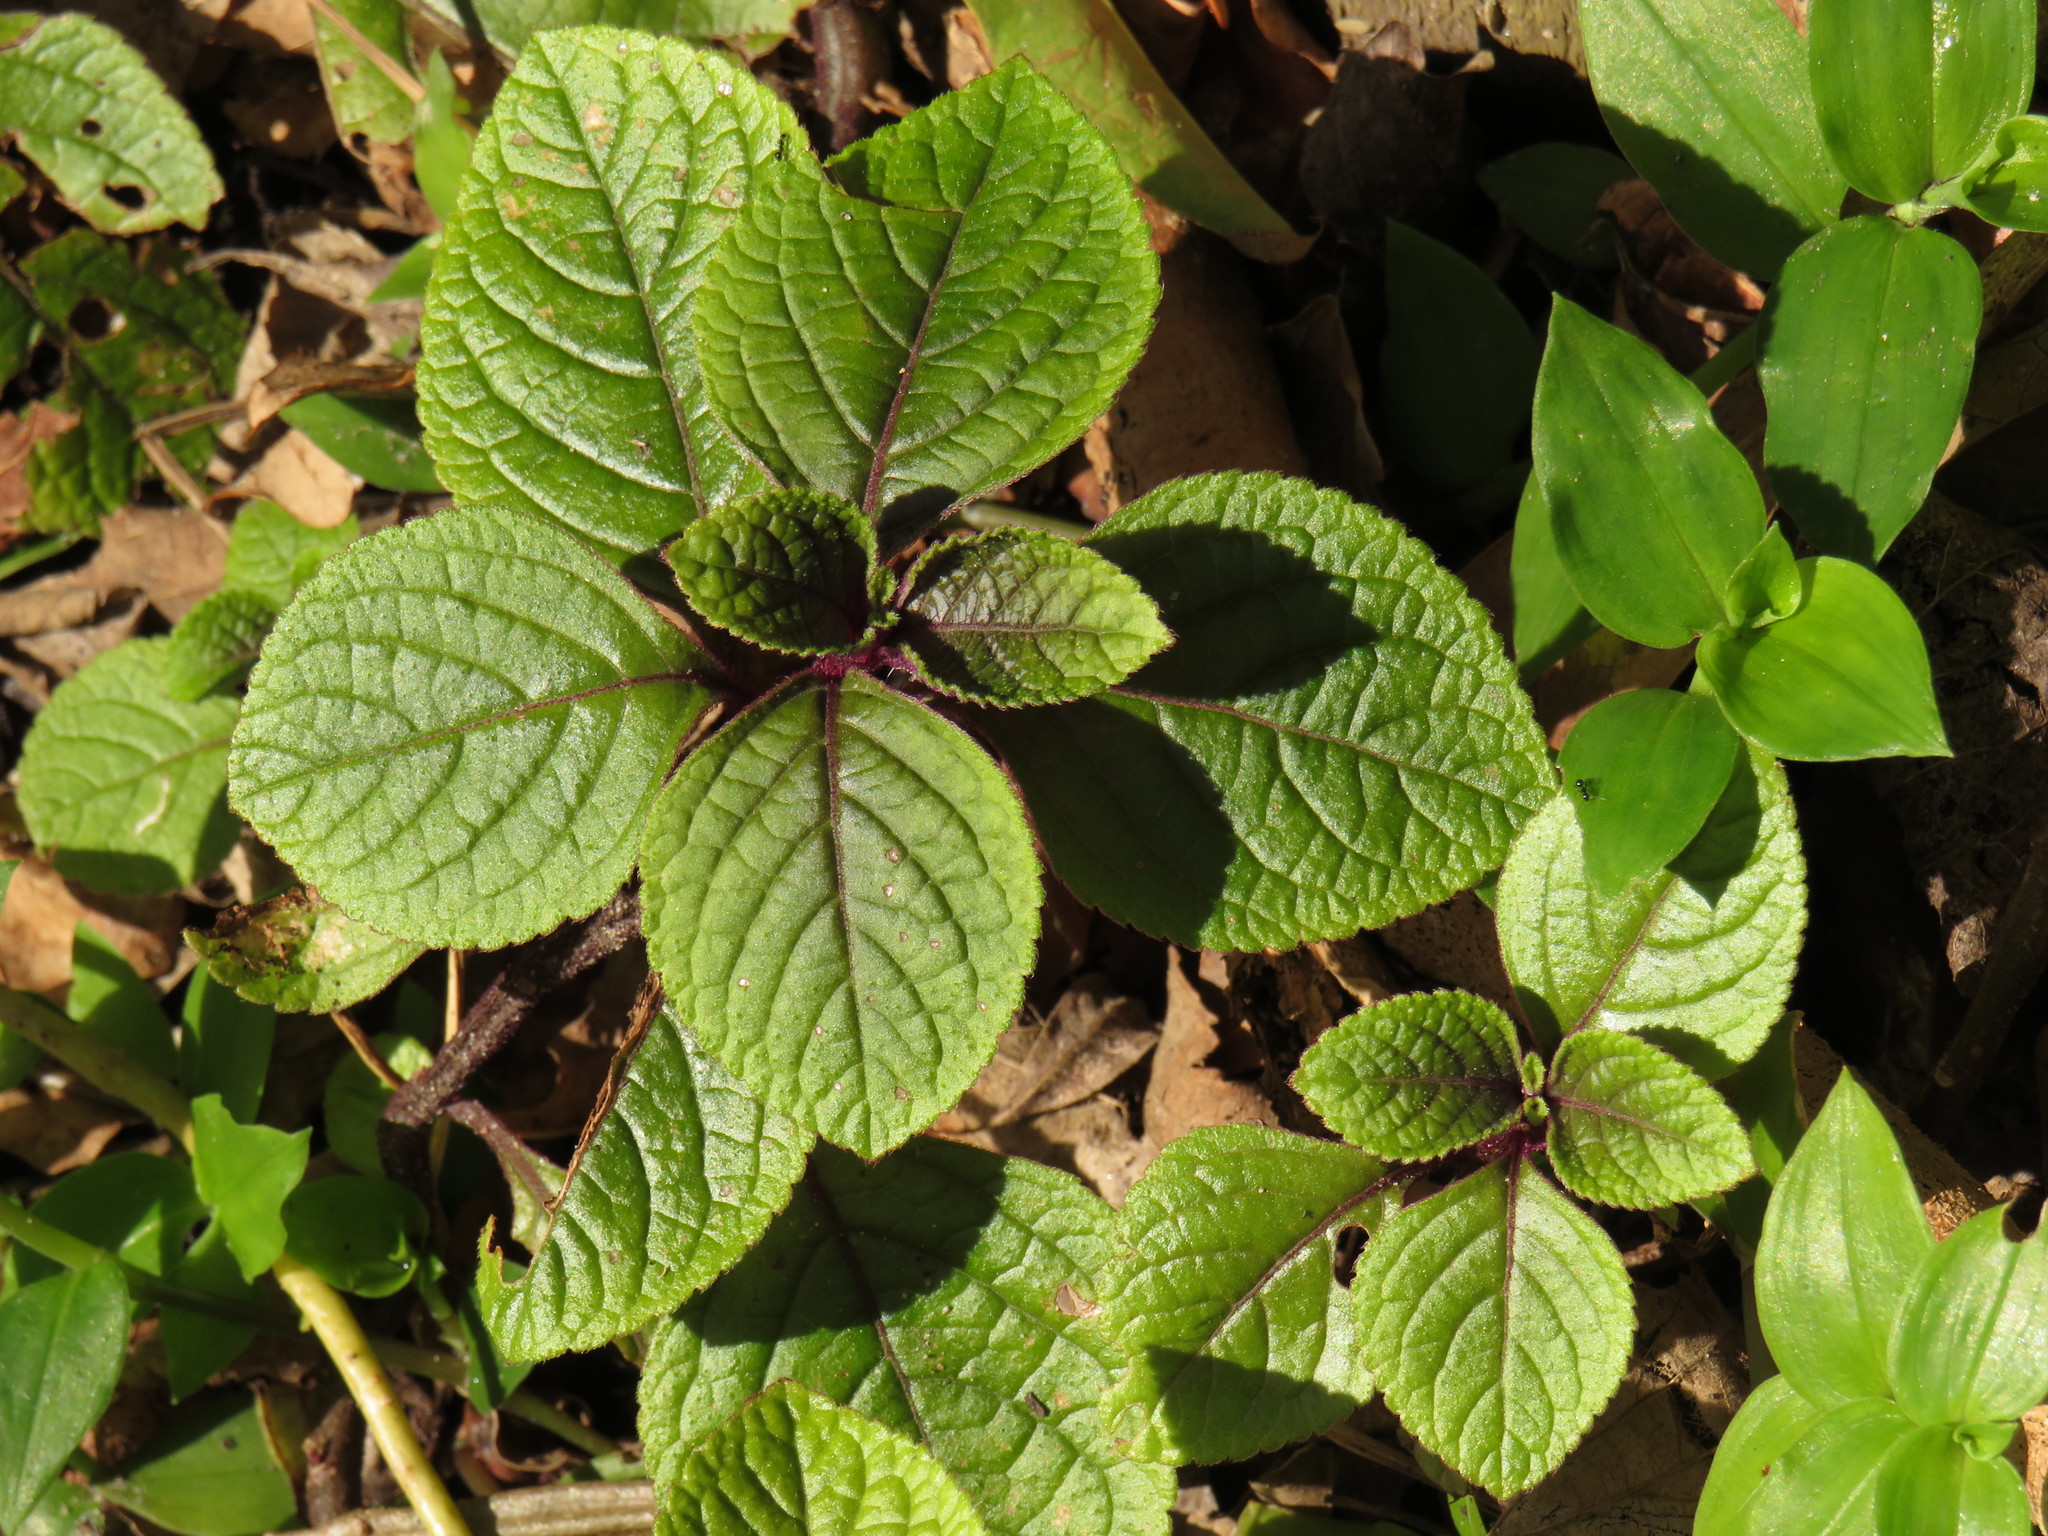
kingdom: Plantae
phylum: Tracheophyta
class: Magnoliopsida
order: Lamiales
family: Lamiaceae
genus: Plectranthus
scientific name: Plectranthus ciliatus
